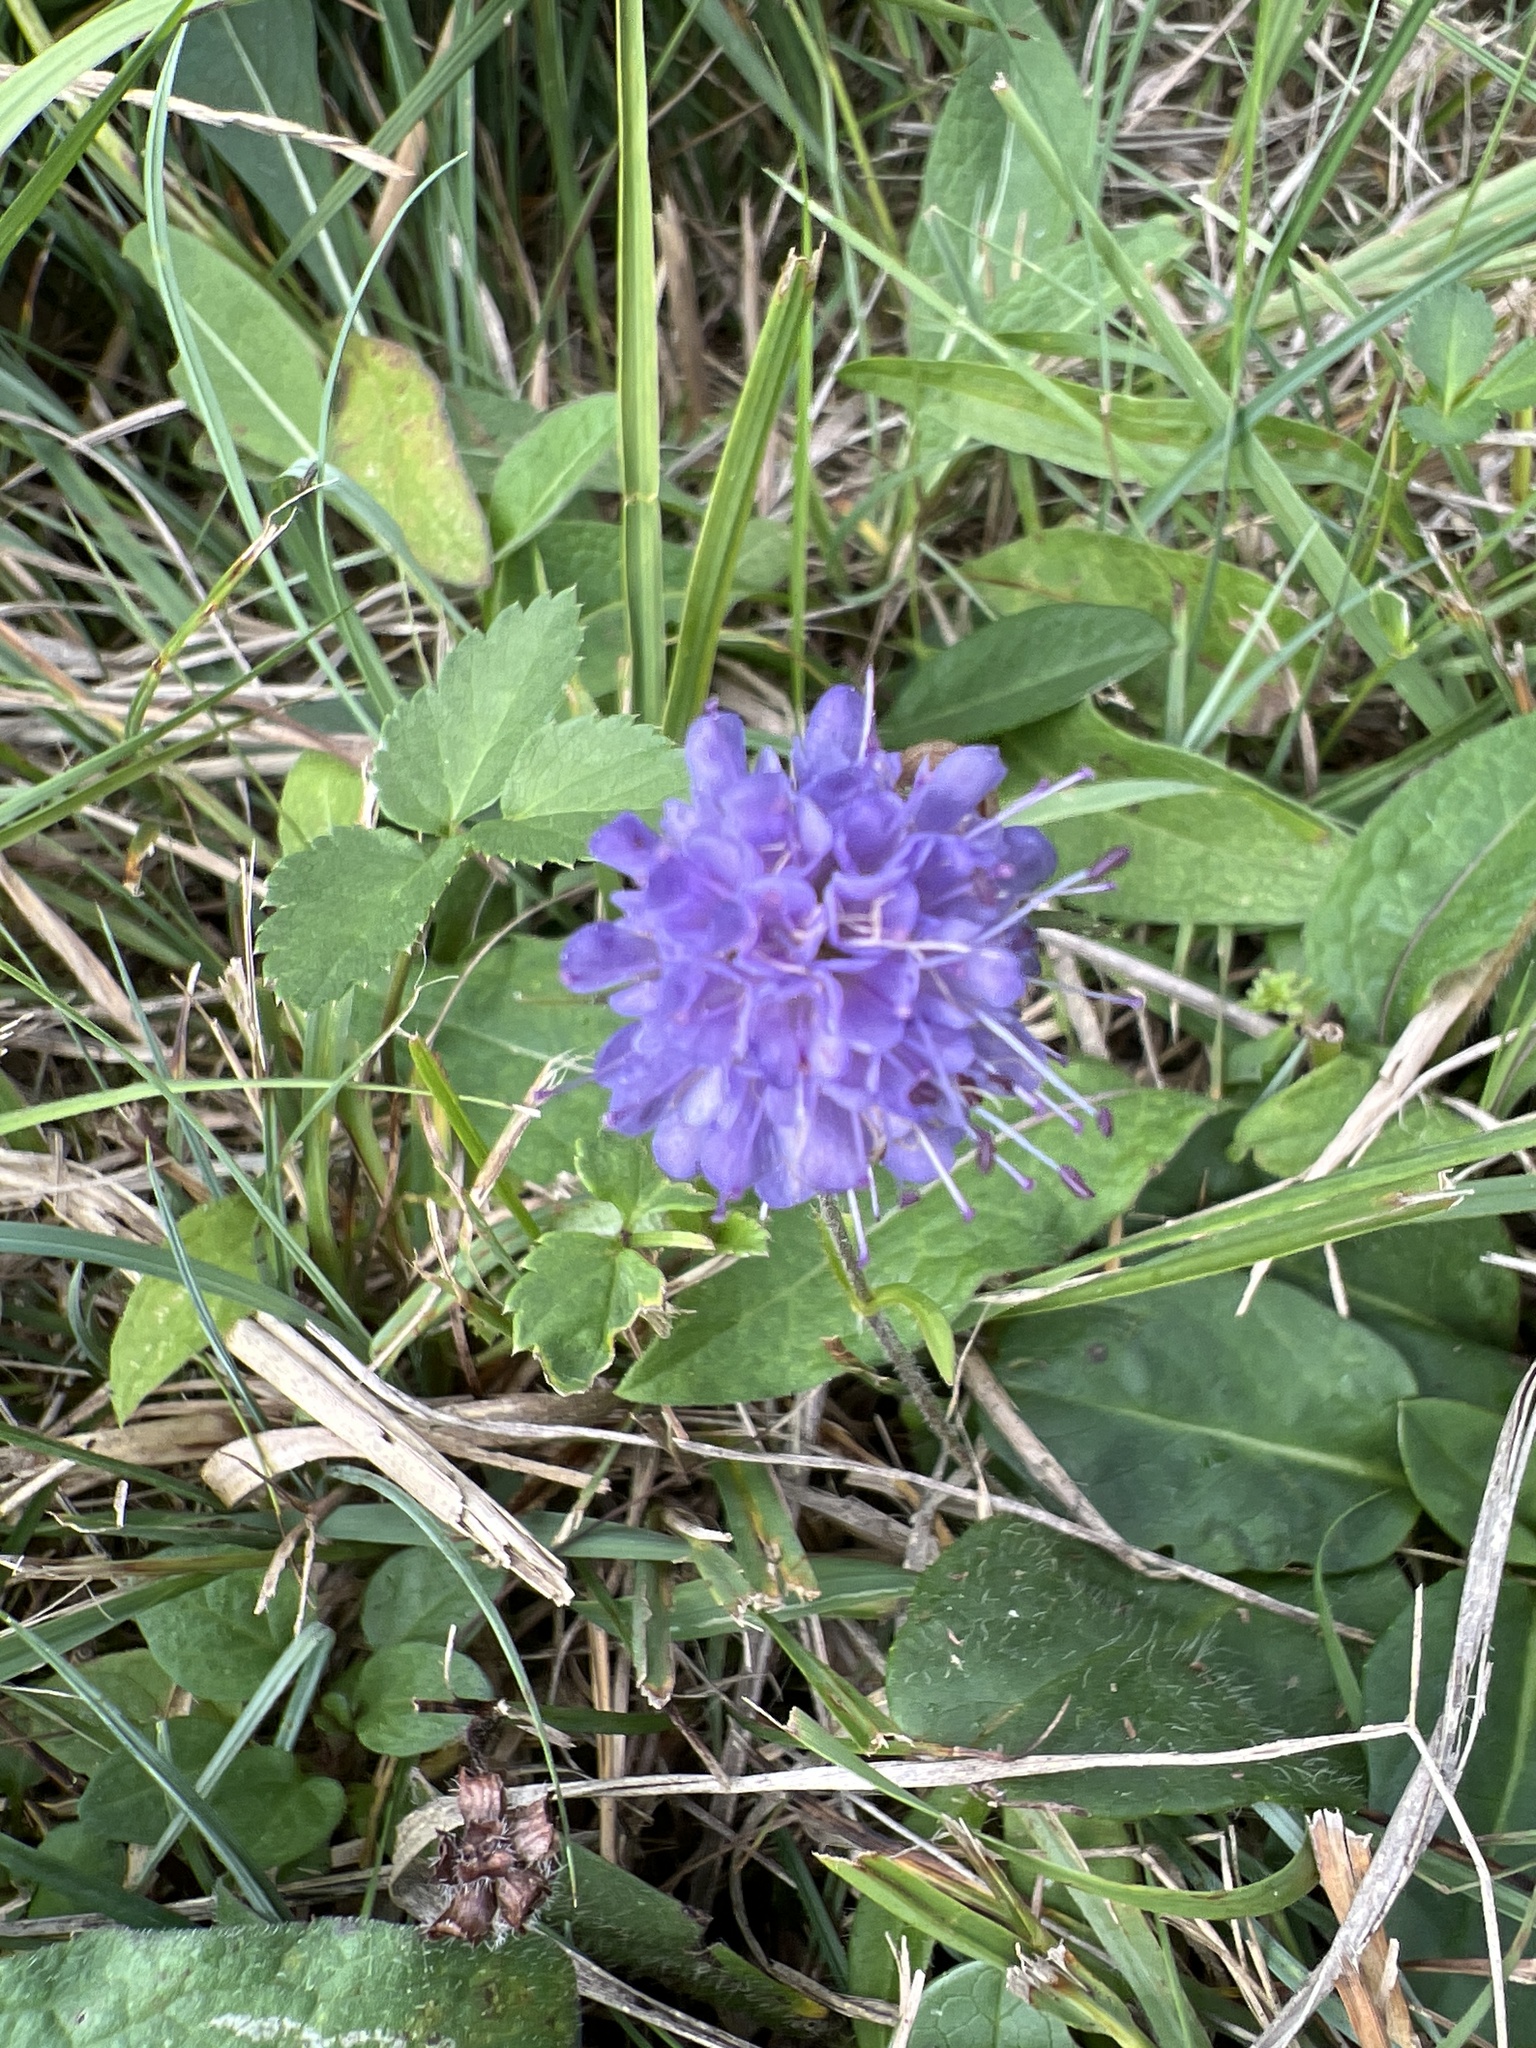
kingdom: Plantae
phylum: Tracheophyta
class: Magnoliopsida
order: Dipsacales
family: Caprifoliaceae
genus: Succisa
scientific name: Succisa pratensis
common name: Devil's-bit
